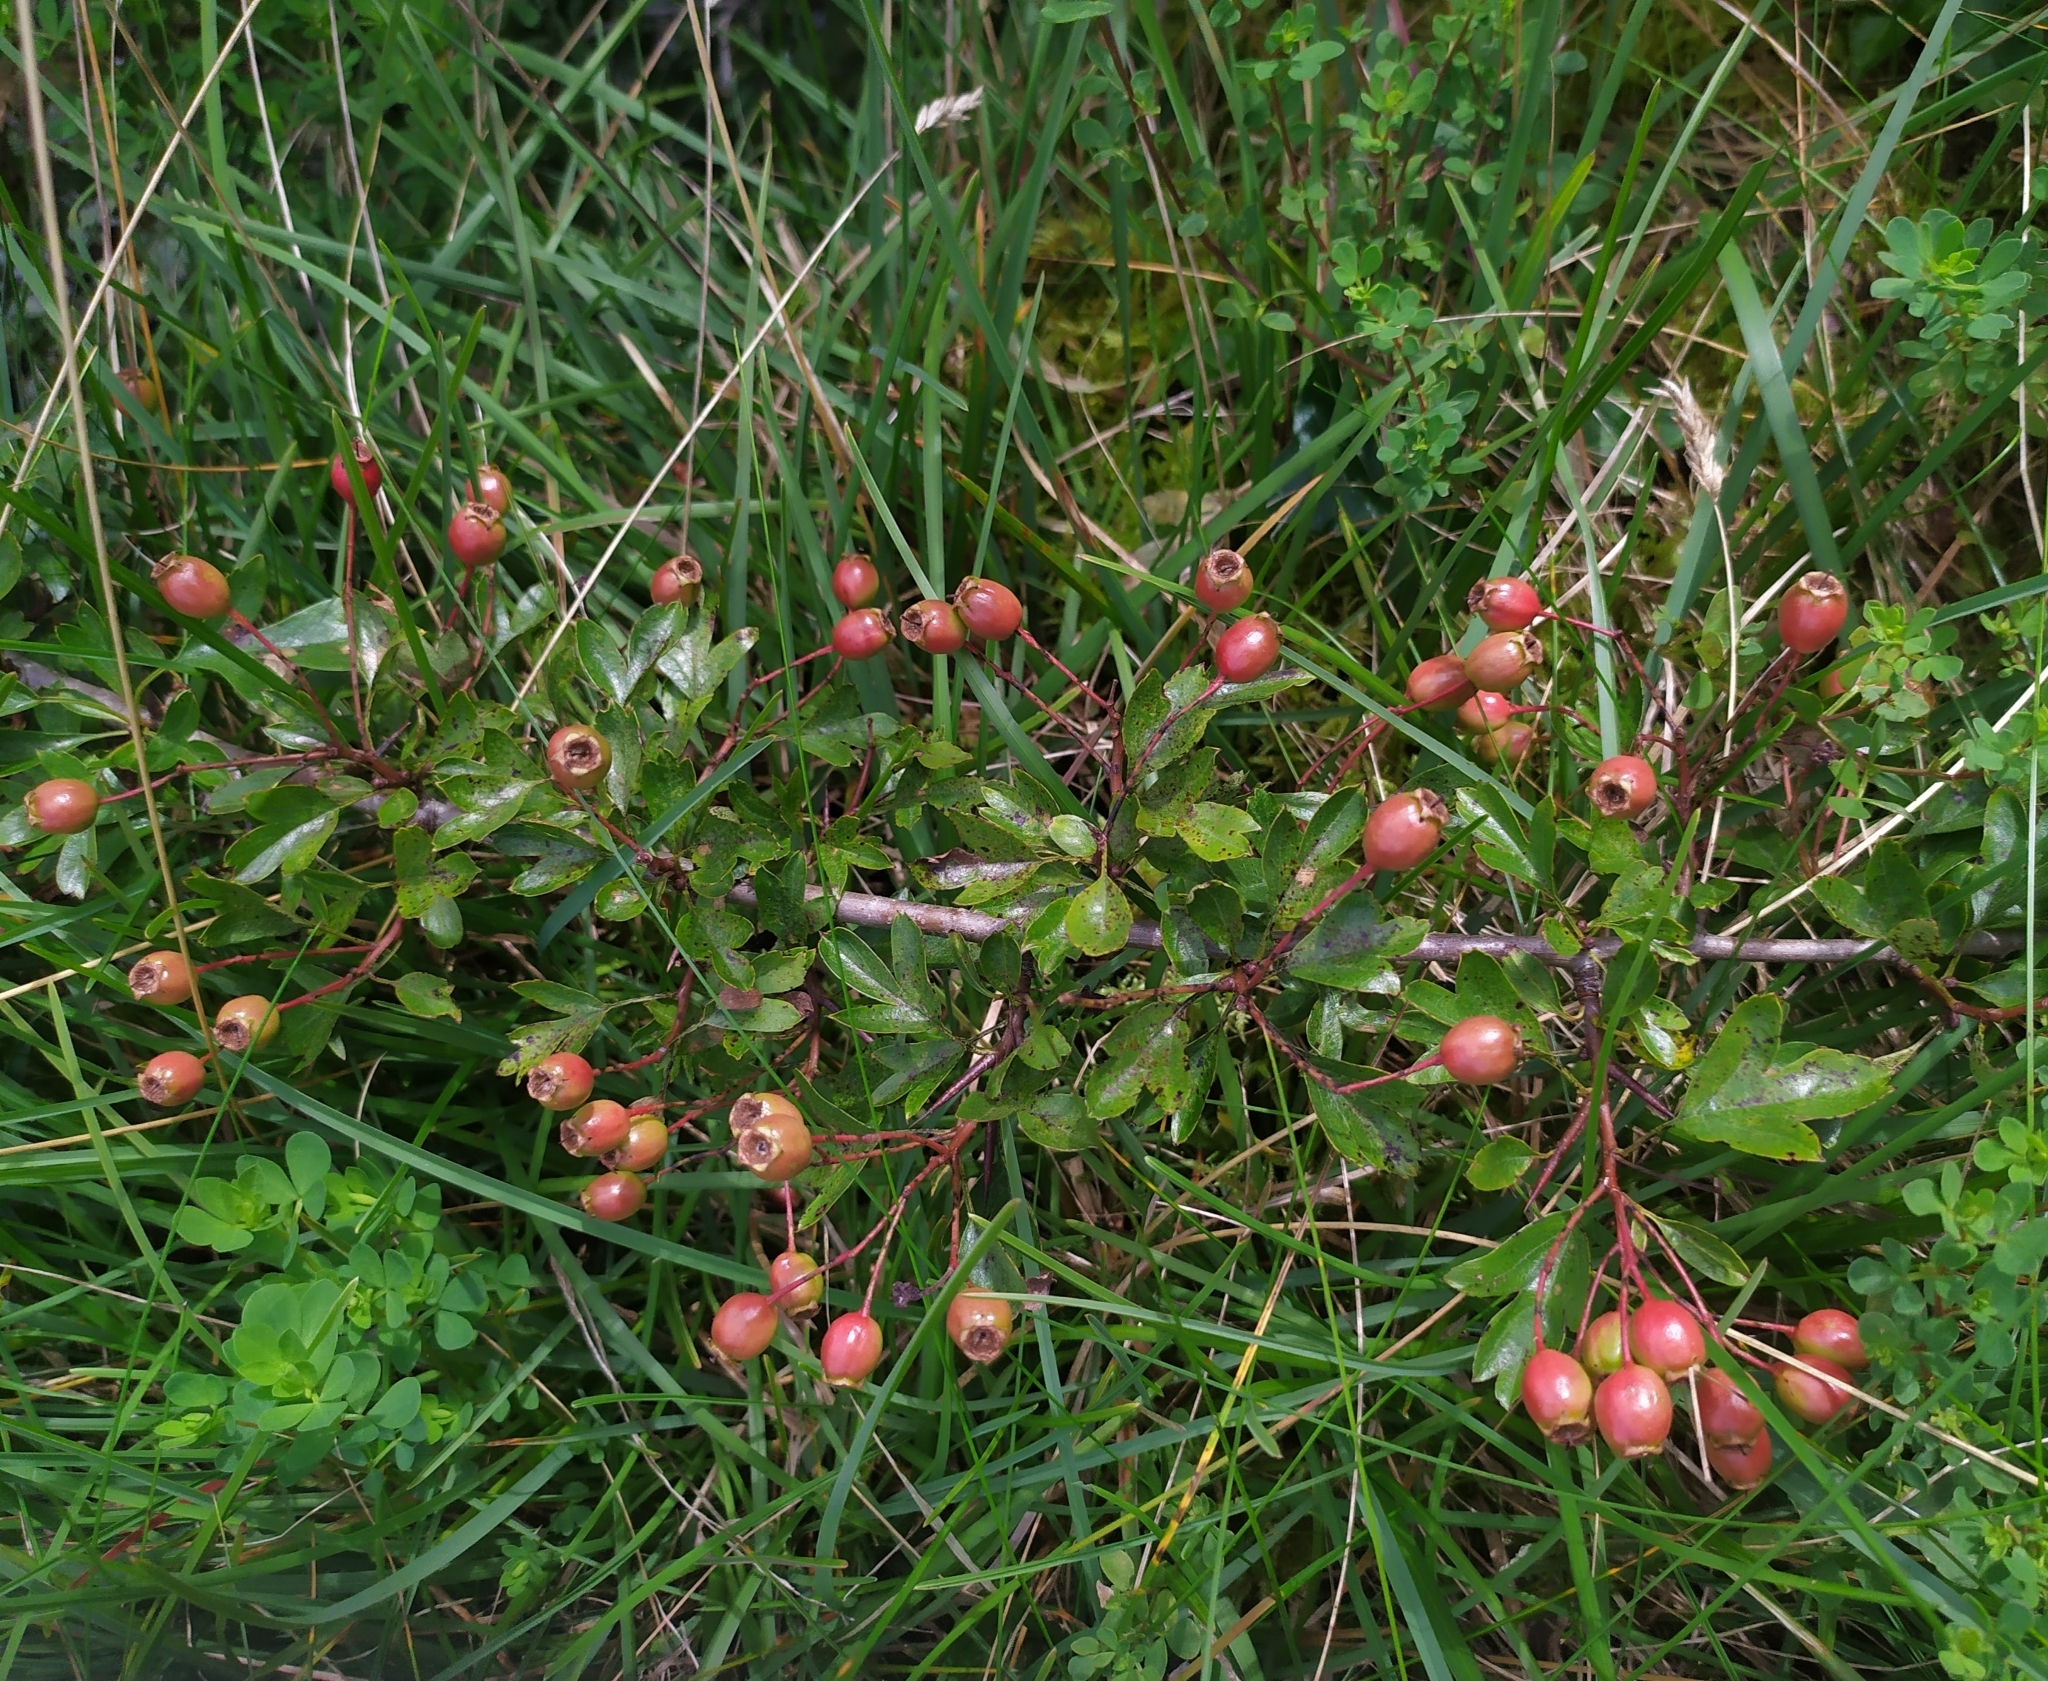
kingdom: Plantae
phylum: Tracheophyta
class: Magnoliopsida
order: Rosales
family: Rosaceae
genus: Crataegus
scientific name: Crataegus monogyna
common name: Hawthorn
